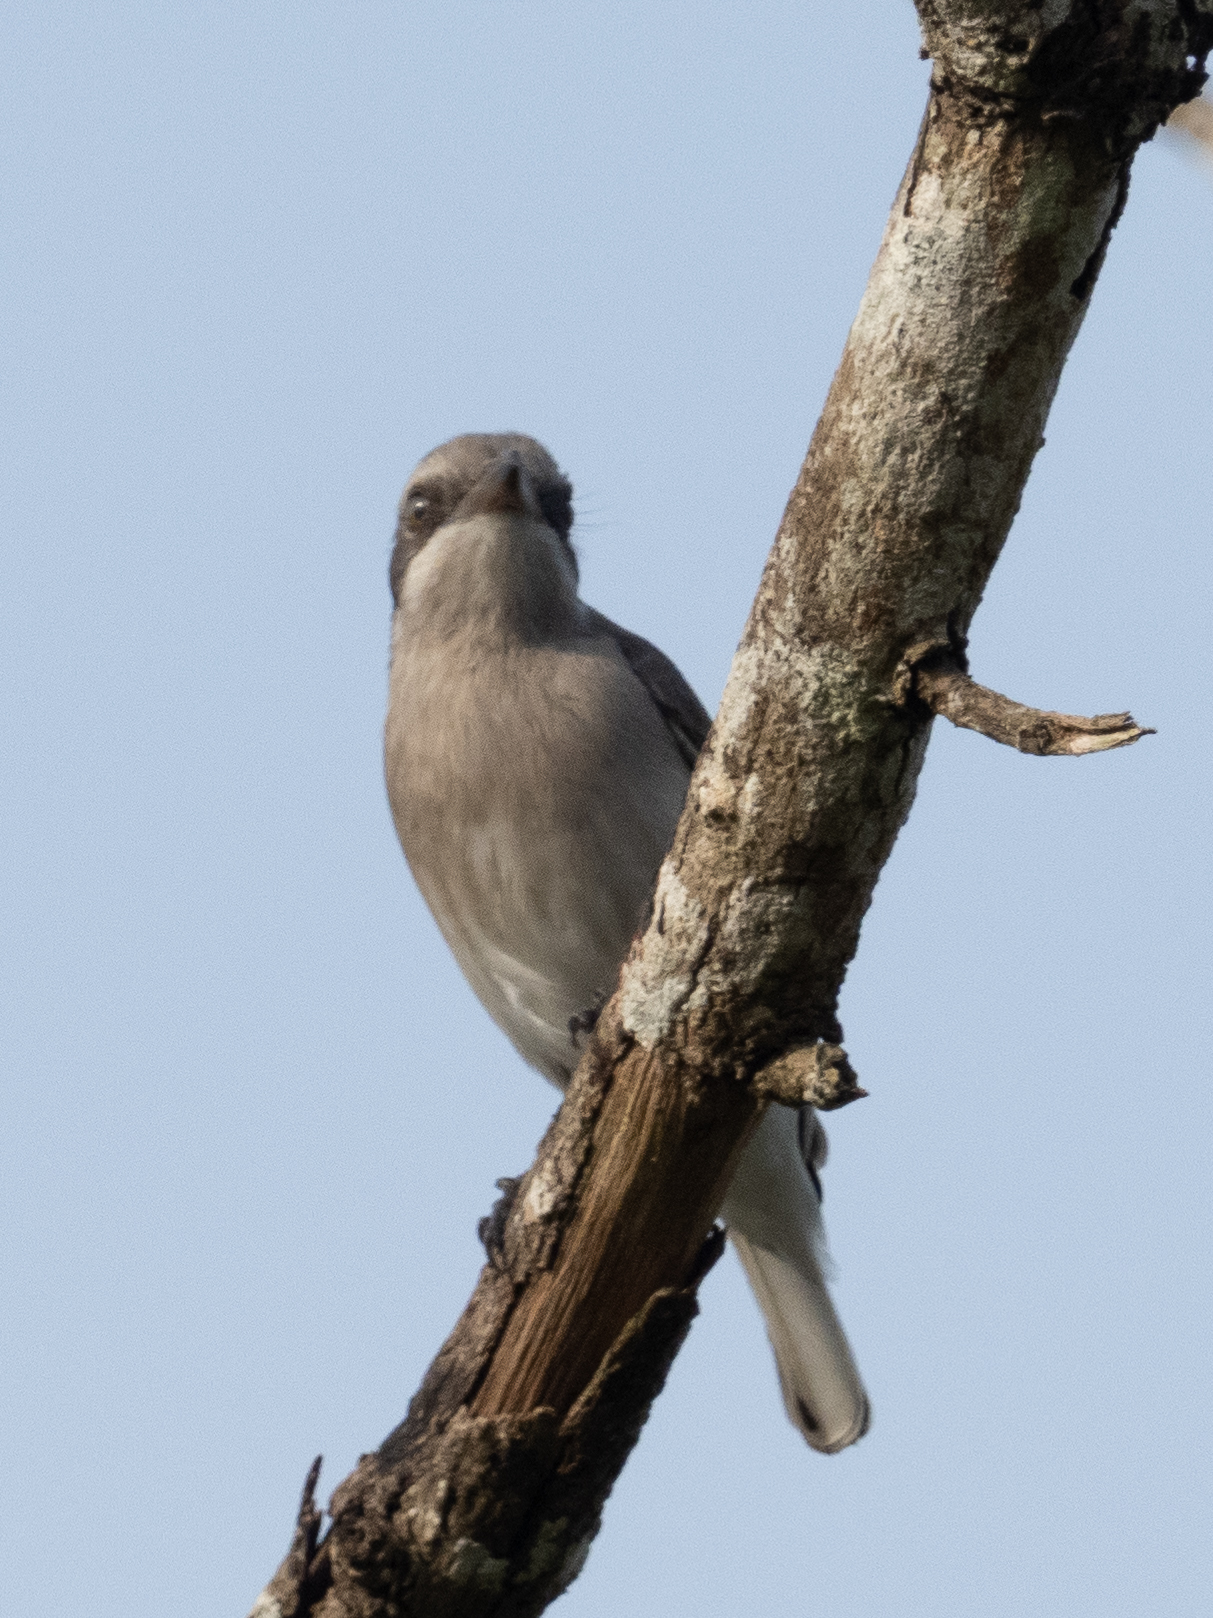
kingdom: Animalia
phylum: Chordata
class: Aves
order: Passeriformes
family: Tephrodornithidae
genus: Tephrodornis
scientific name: Tephrodornis affinis
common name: Sri lanka woodshrike
